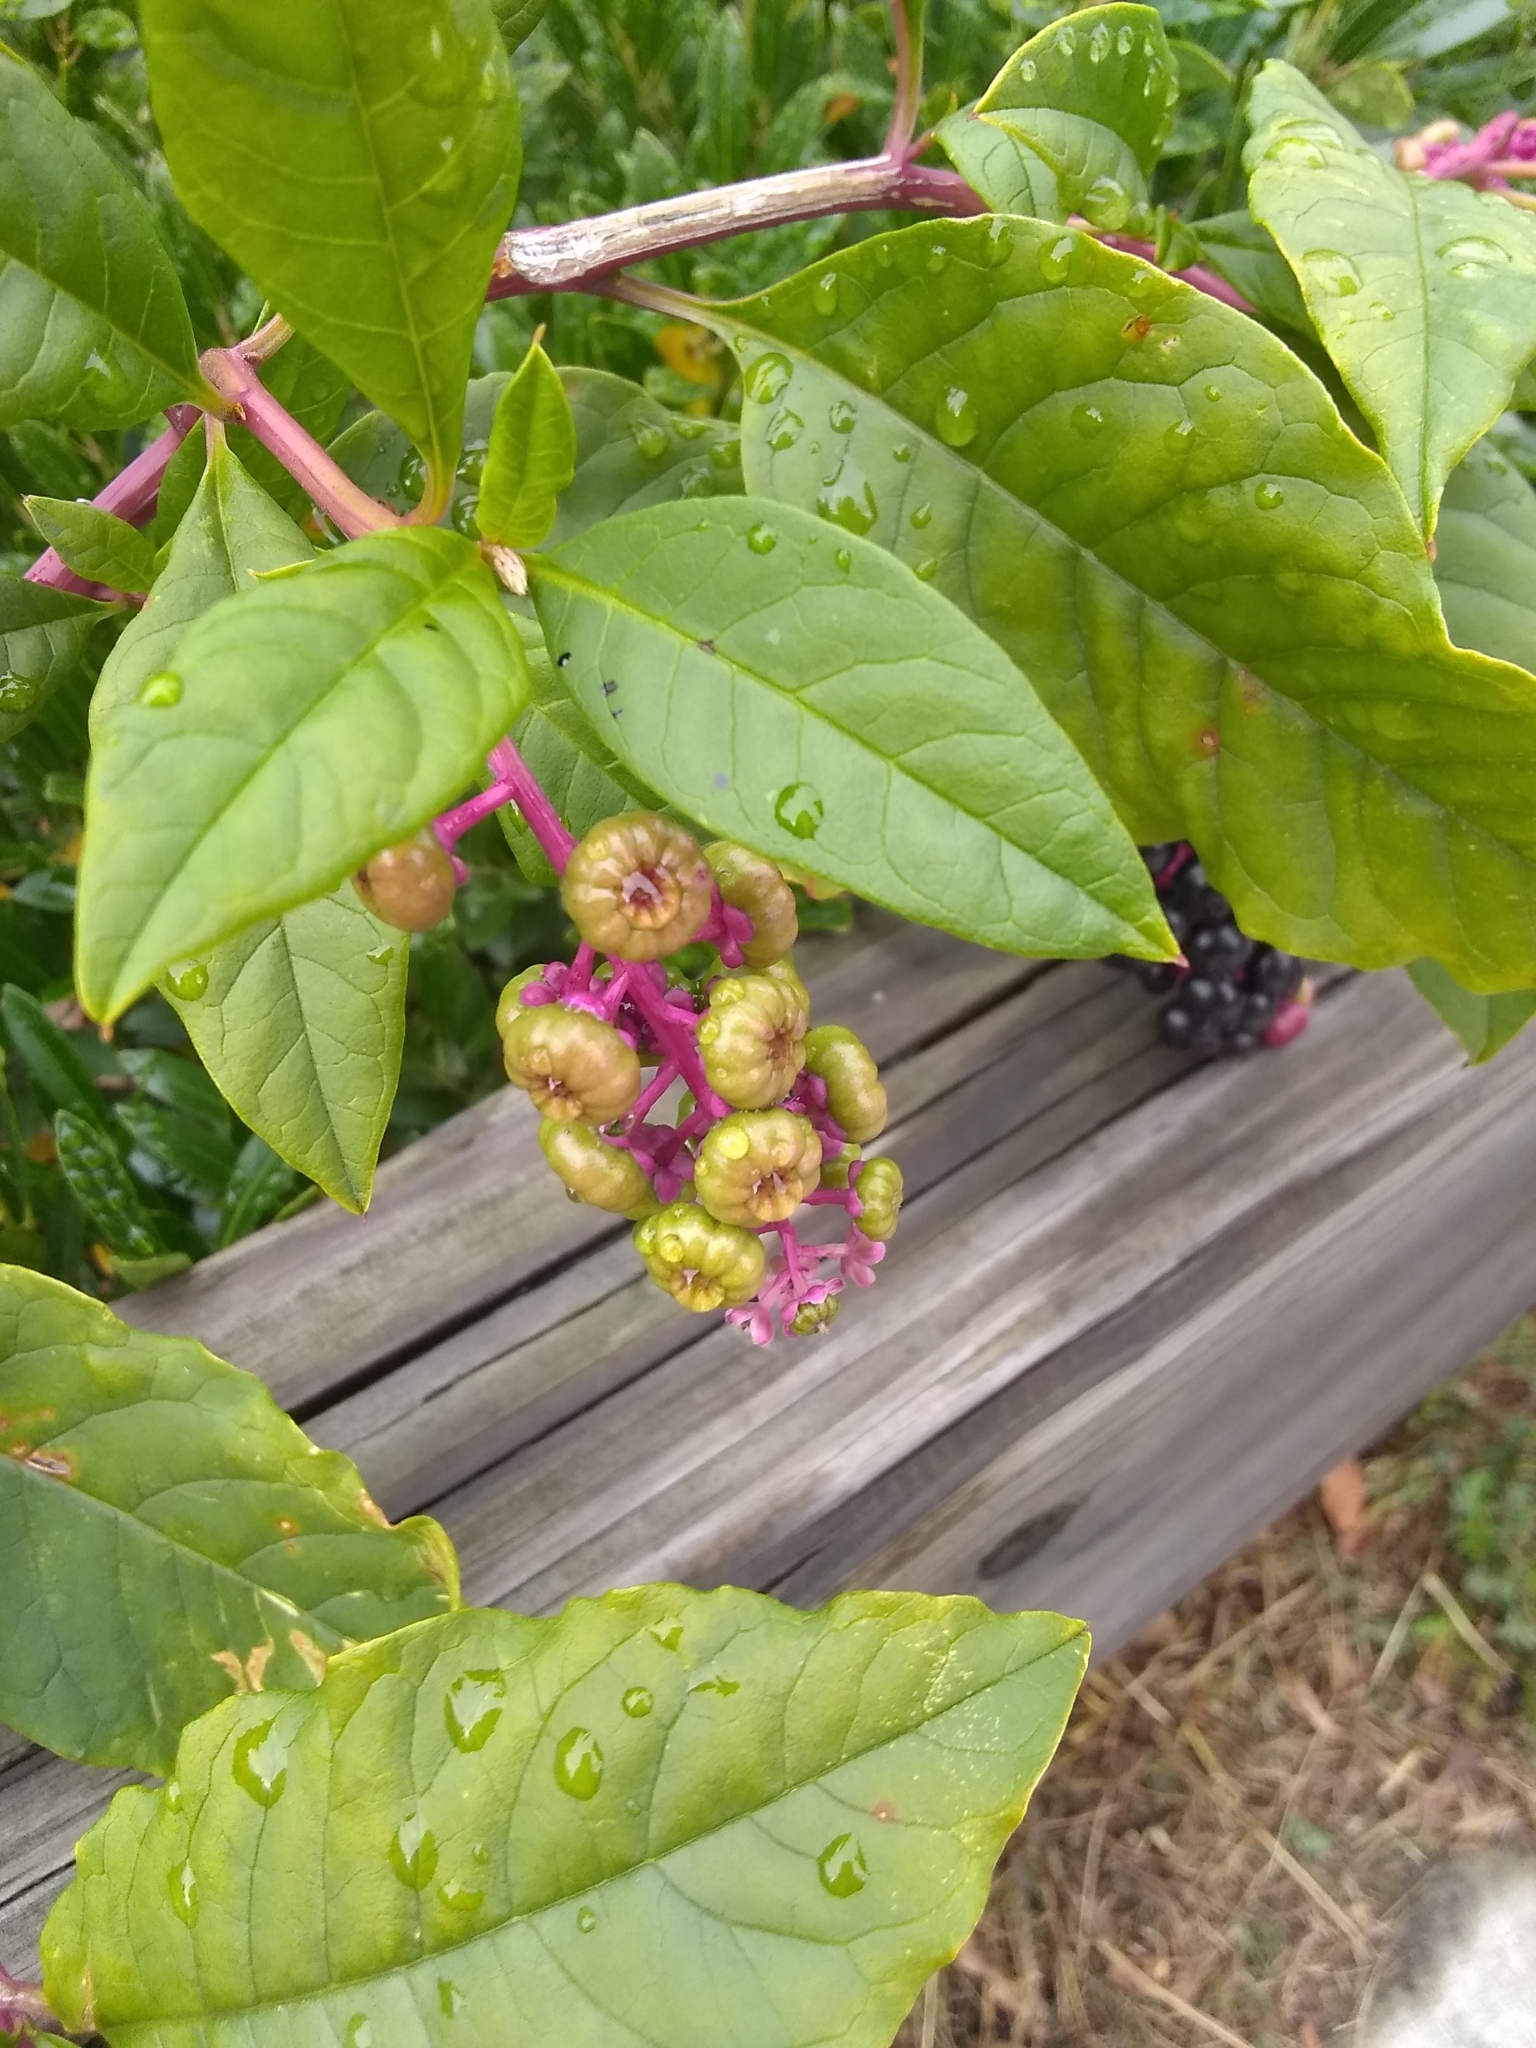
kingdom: Plantae
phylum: Tracheophyta
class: Magnoliopsida
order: Caryophyllales
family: Phytolaccaceae
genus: Phytolacca
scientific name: Phytolacca americana
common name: American pokeweed
